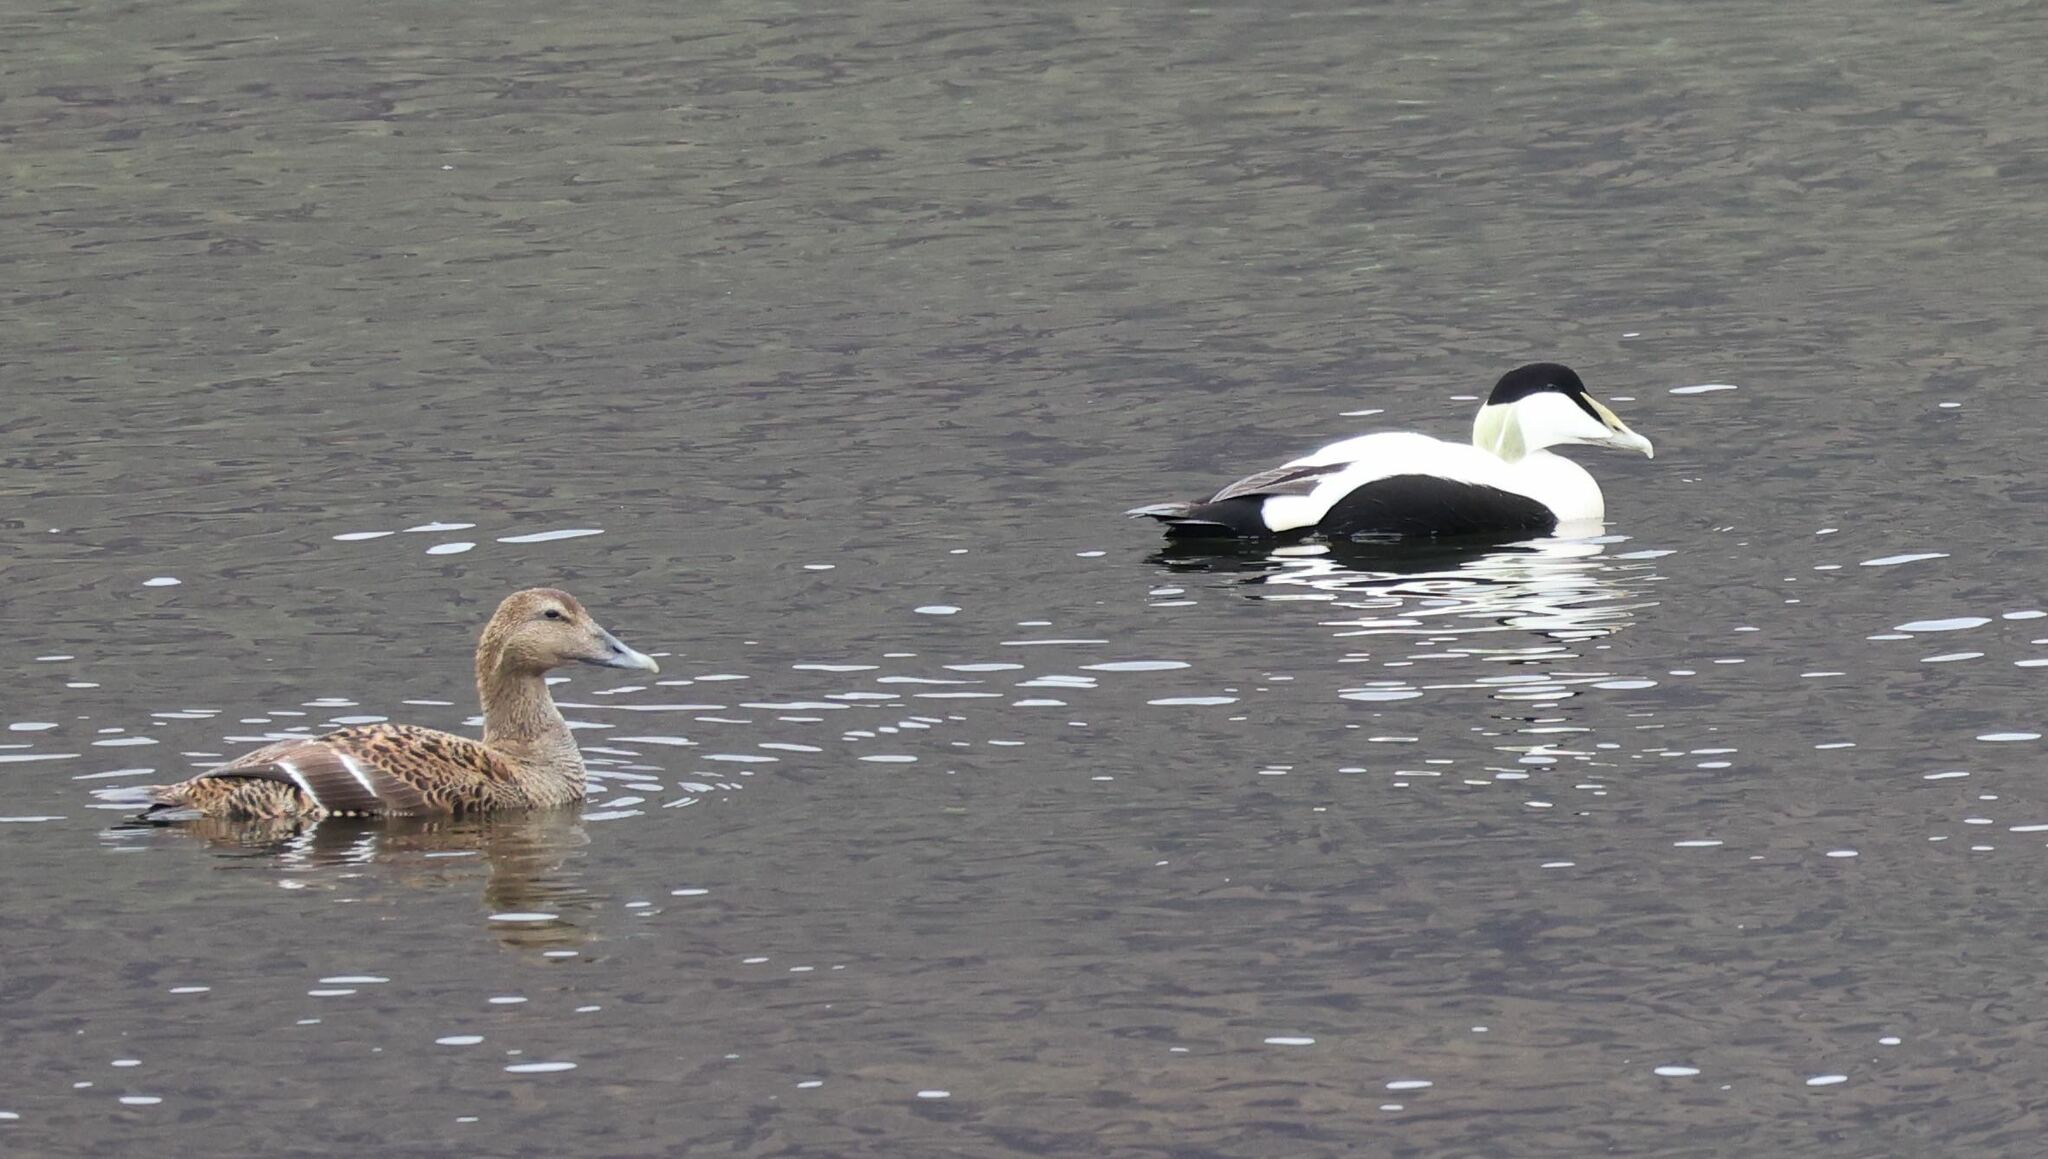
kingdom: Animalia
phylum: Chordata
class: Aves
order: Anseriformes
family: Anatidae
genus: Somateria
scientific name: Somateria mollissima
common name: Common eider
